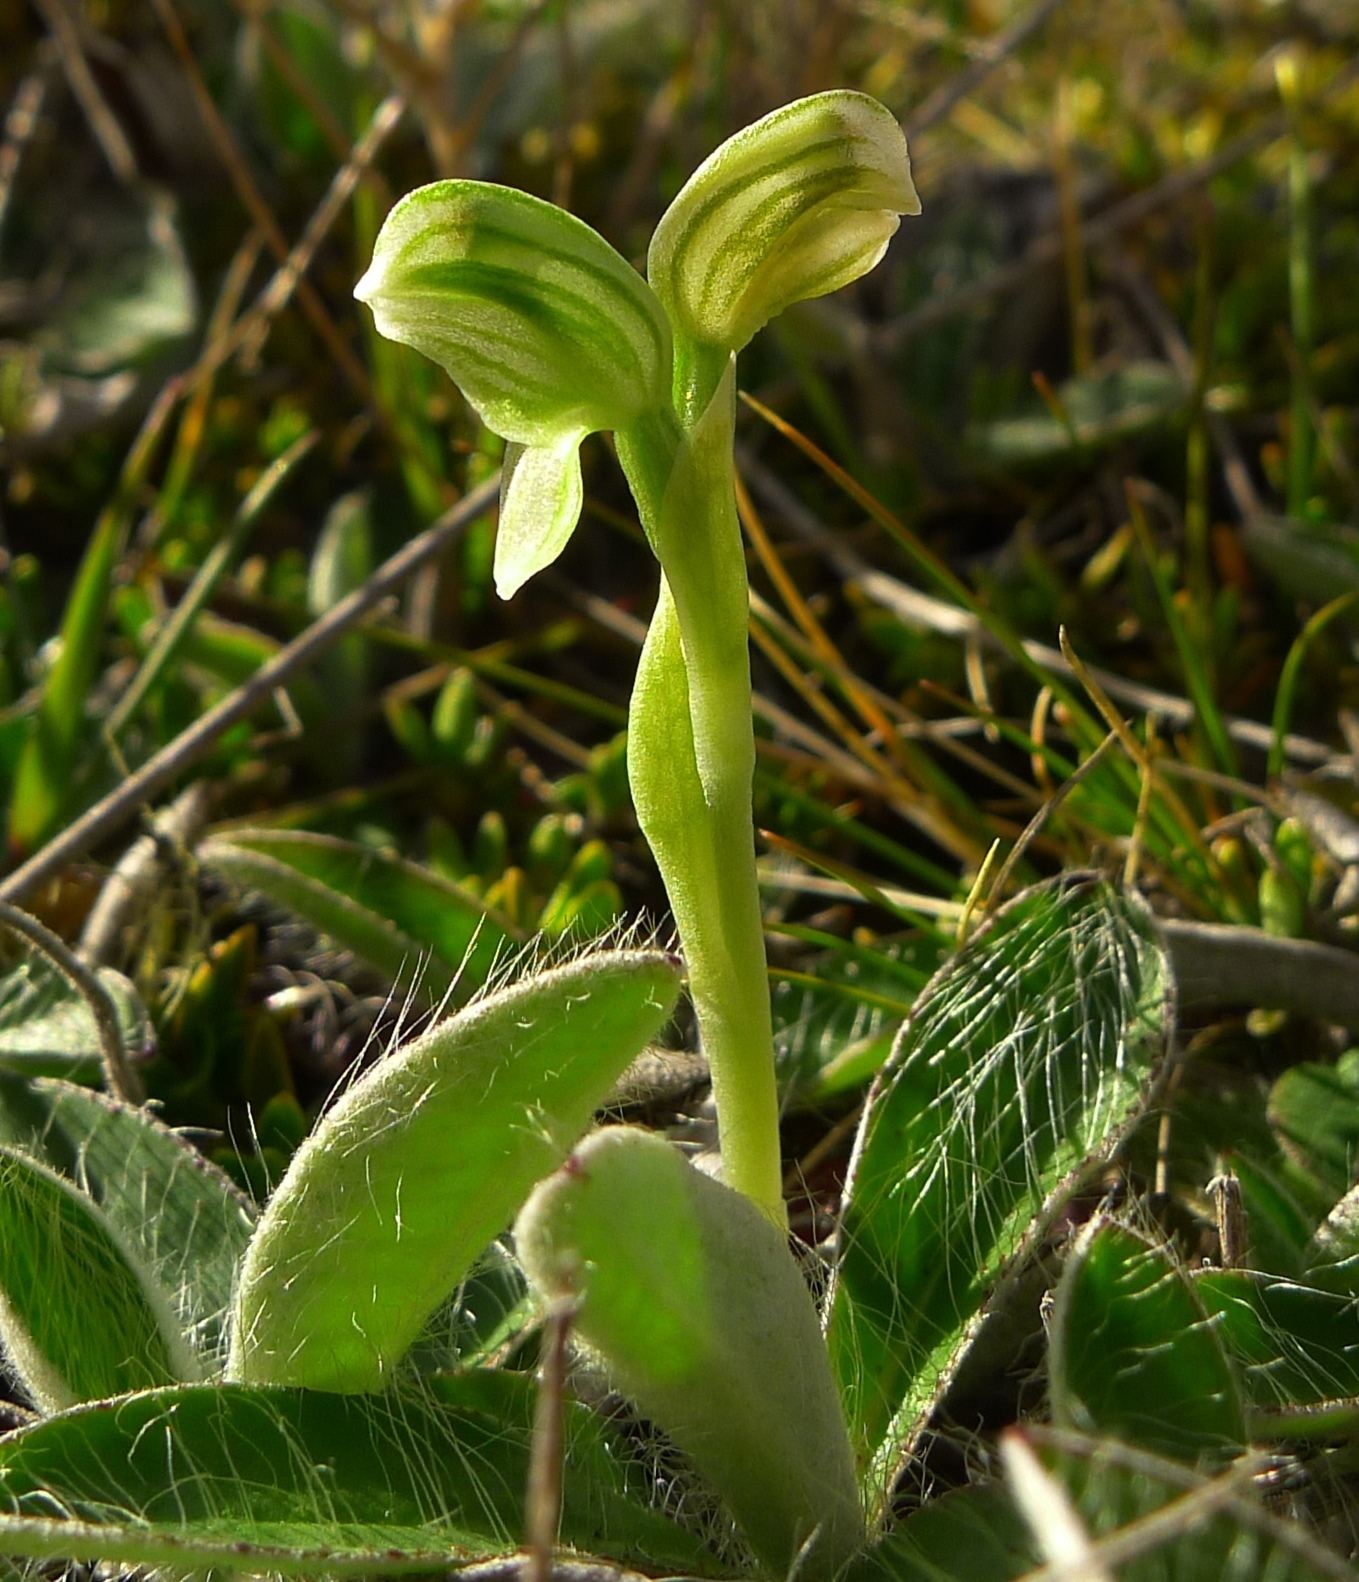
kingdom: Plantae
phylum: Tracheophyta
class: Liliopsida
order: Asparagales
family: Orchidaceae
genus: Pterostylis
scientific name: Pterostylis tanypoda
